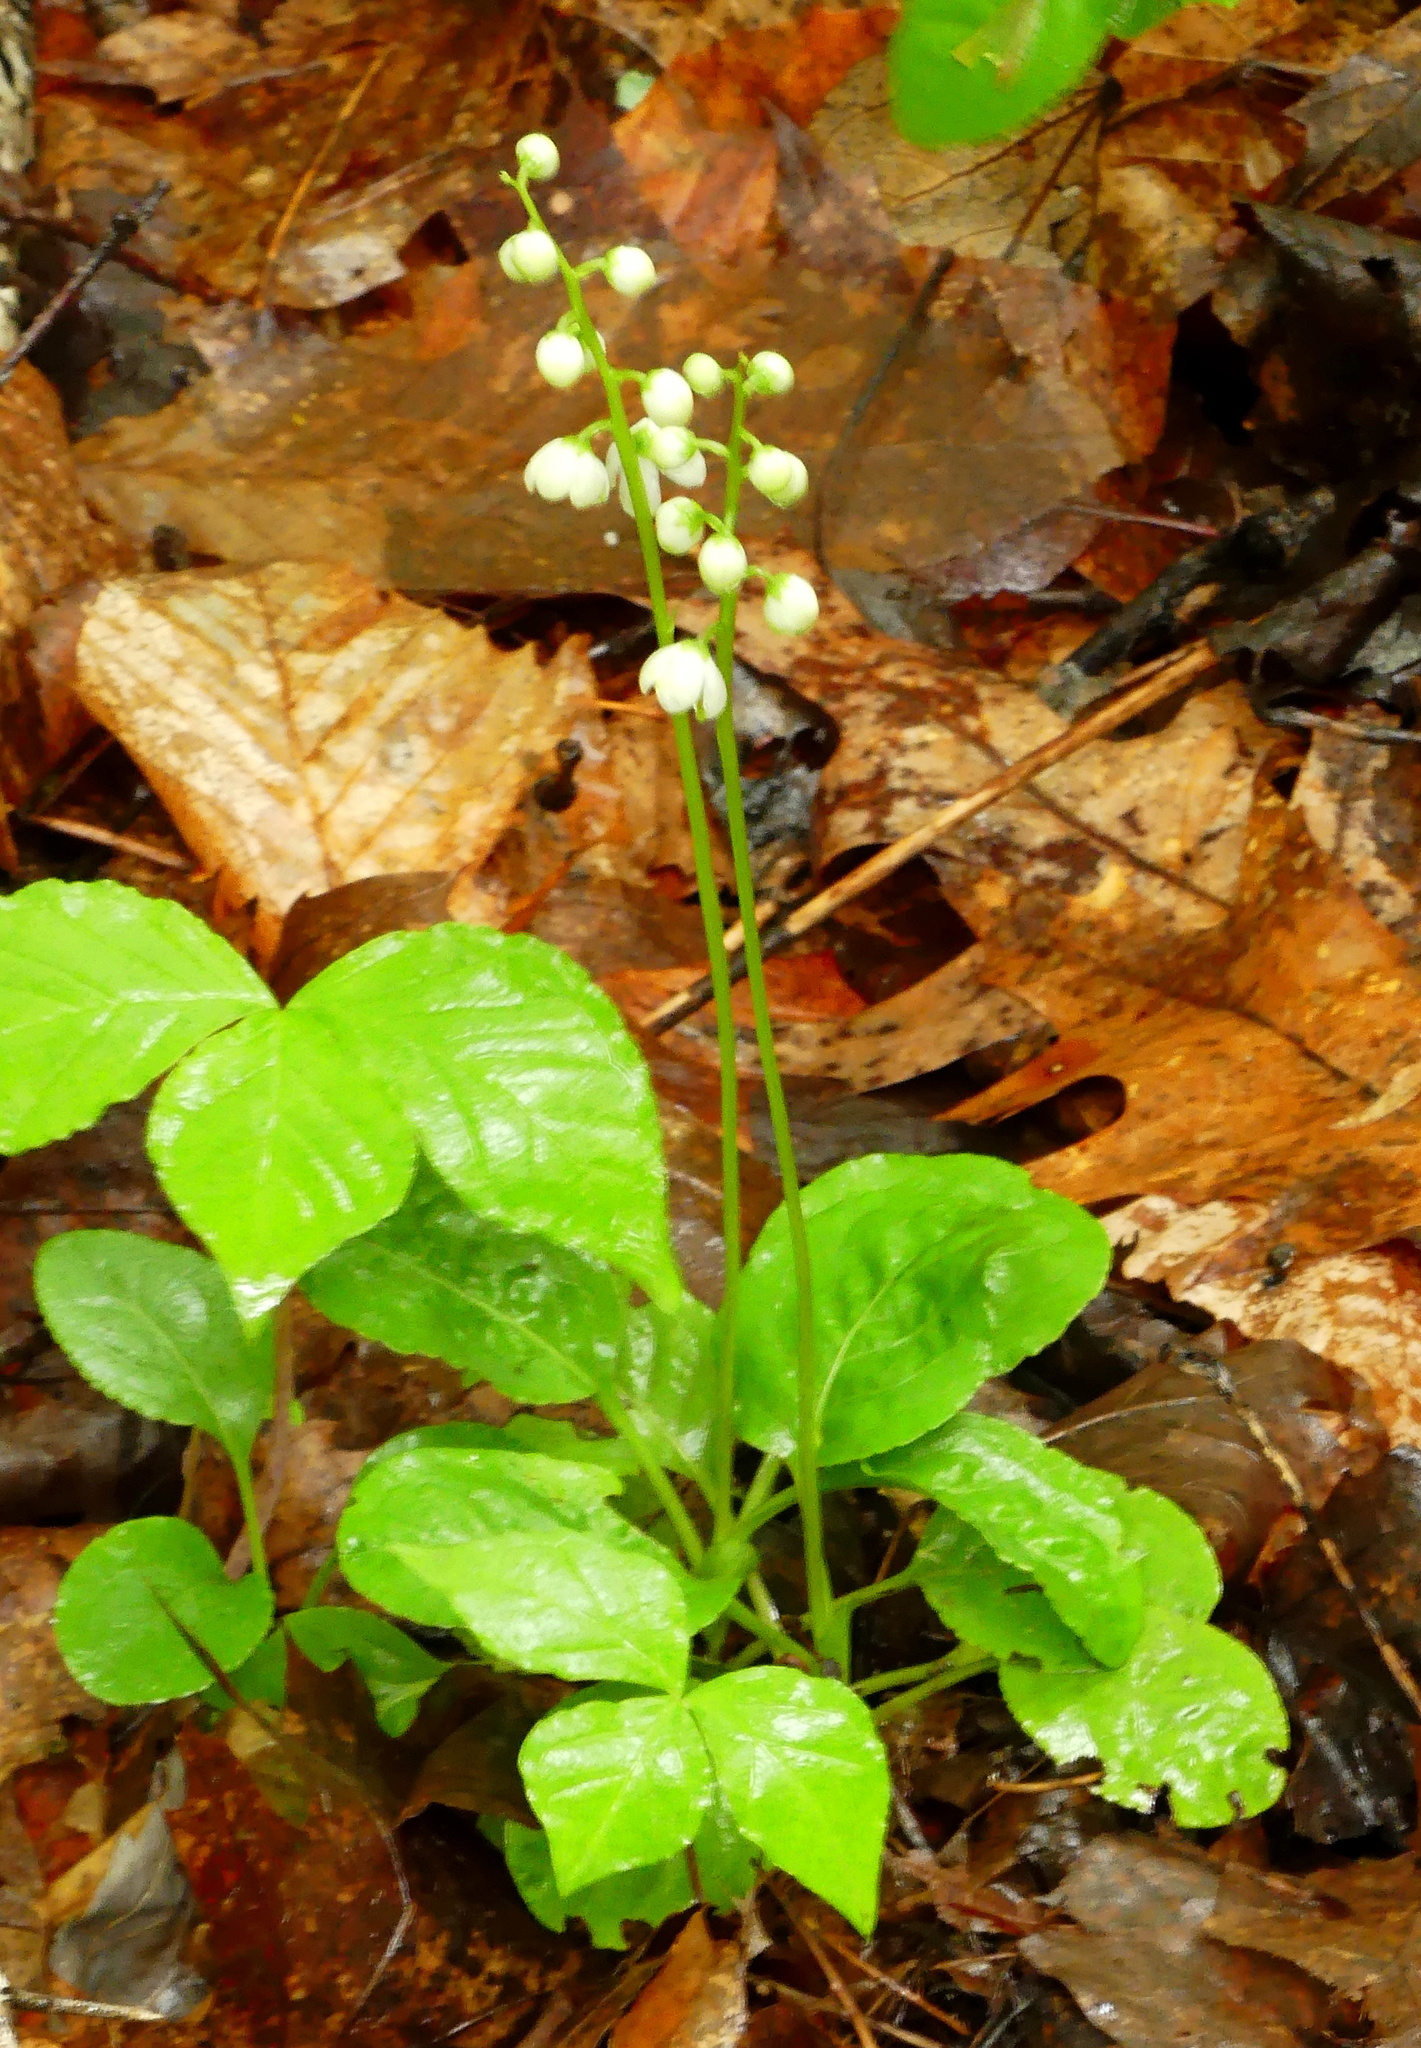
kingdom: Plantae
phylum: Tracheophyta
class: Magnoliopsida
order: Ericales
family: Ericaceae
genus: Pyrola
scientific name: Pyrola elliptica
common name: Shinleaf
